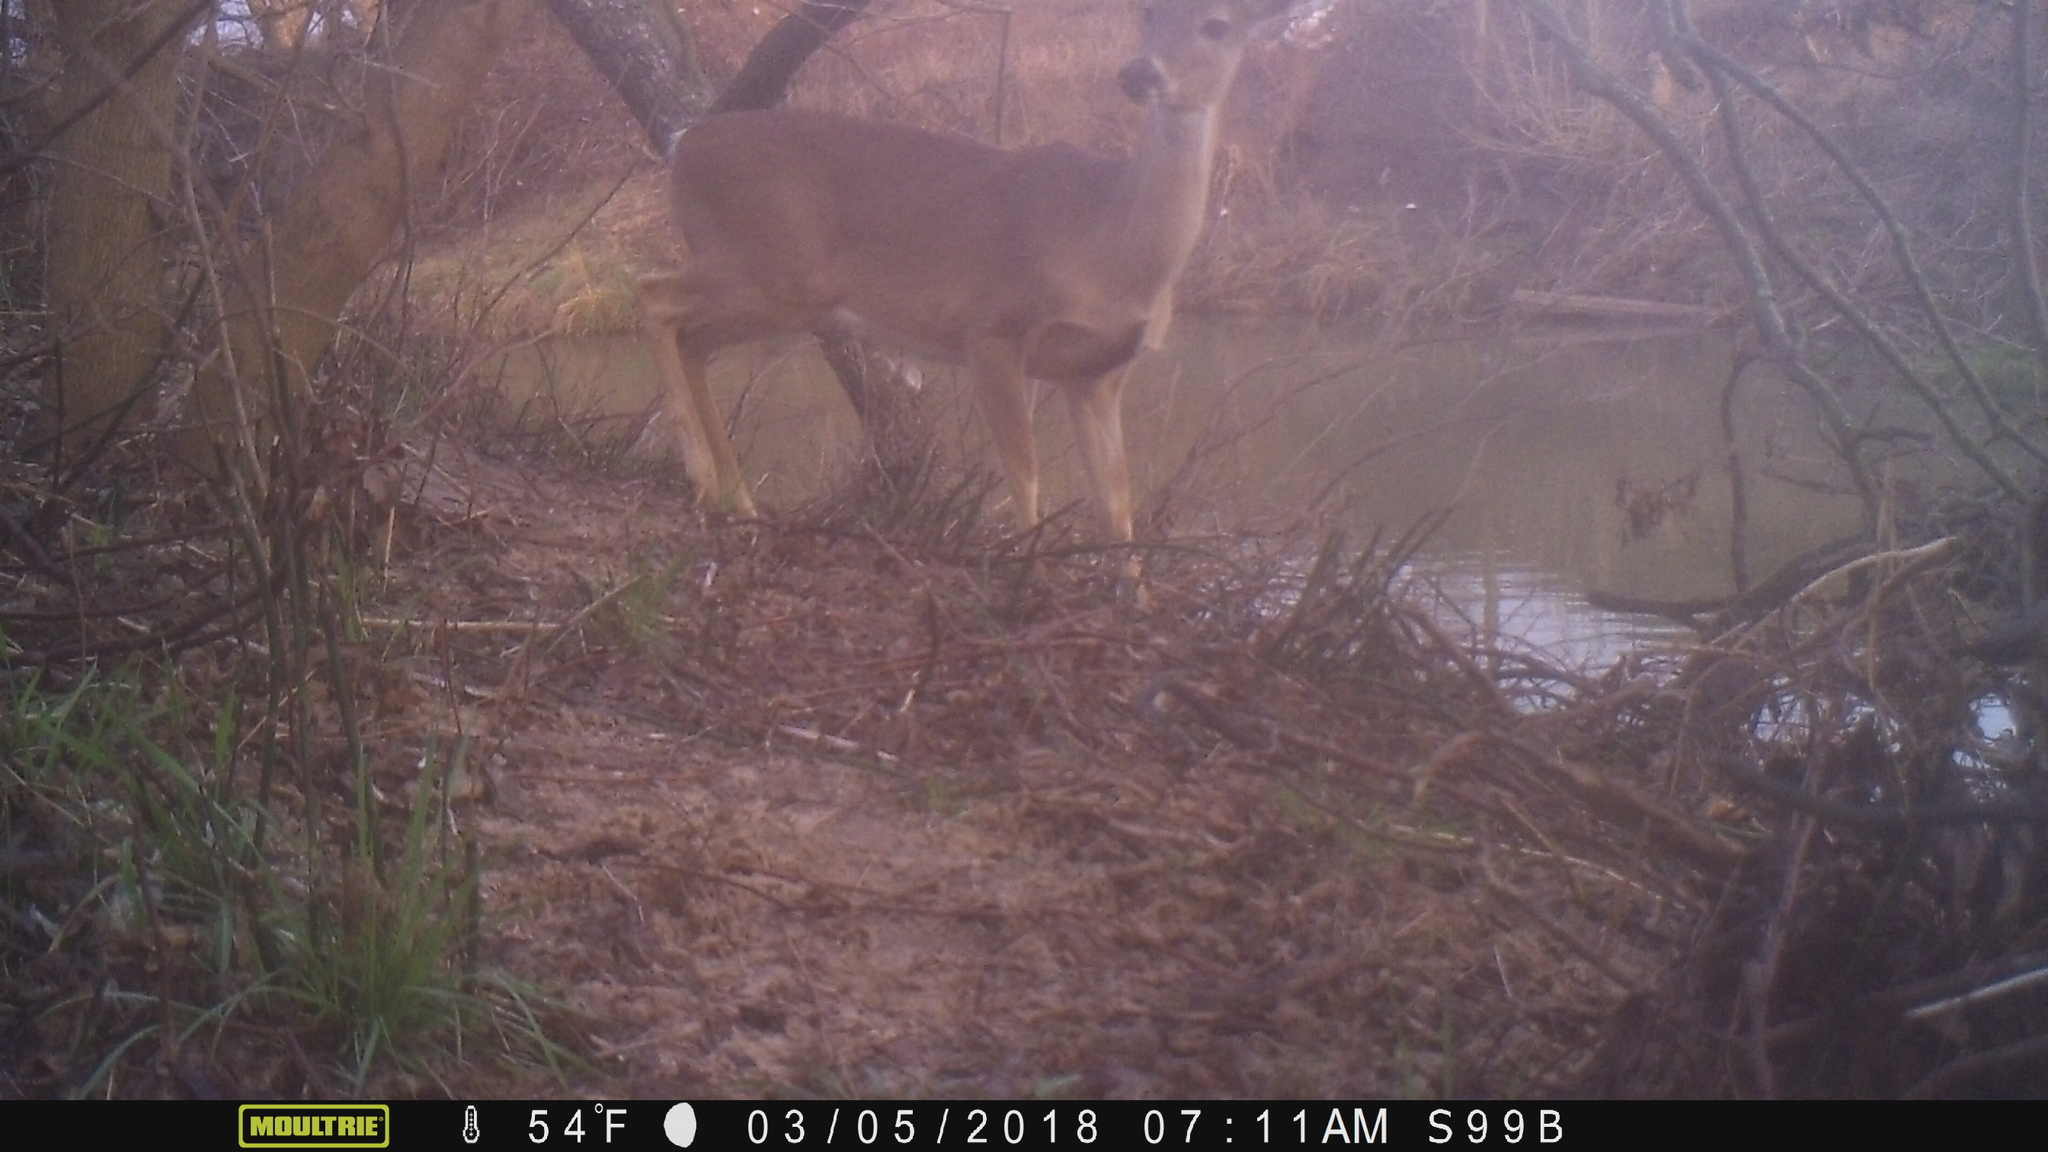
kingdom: Animalia
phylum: Chordata
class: Mammalia
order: Artiodactyla
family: Cervidae
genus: Odocoileus
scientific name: Odocoileus virginianus
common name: White-tailed deer
